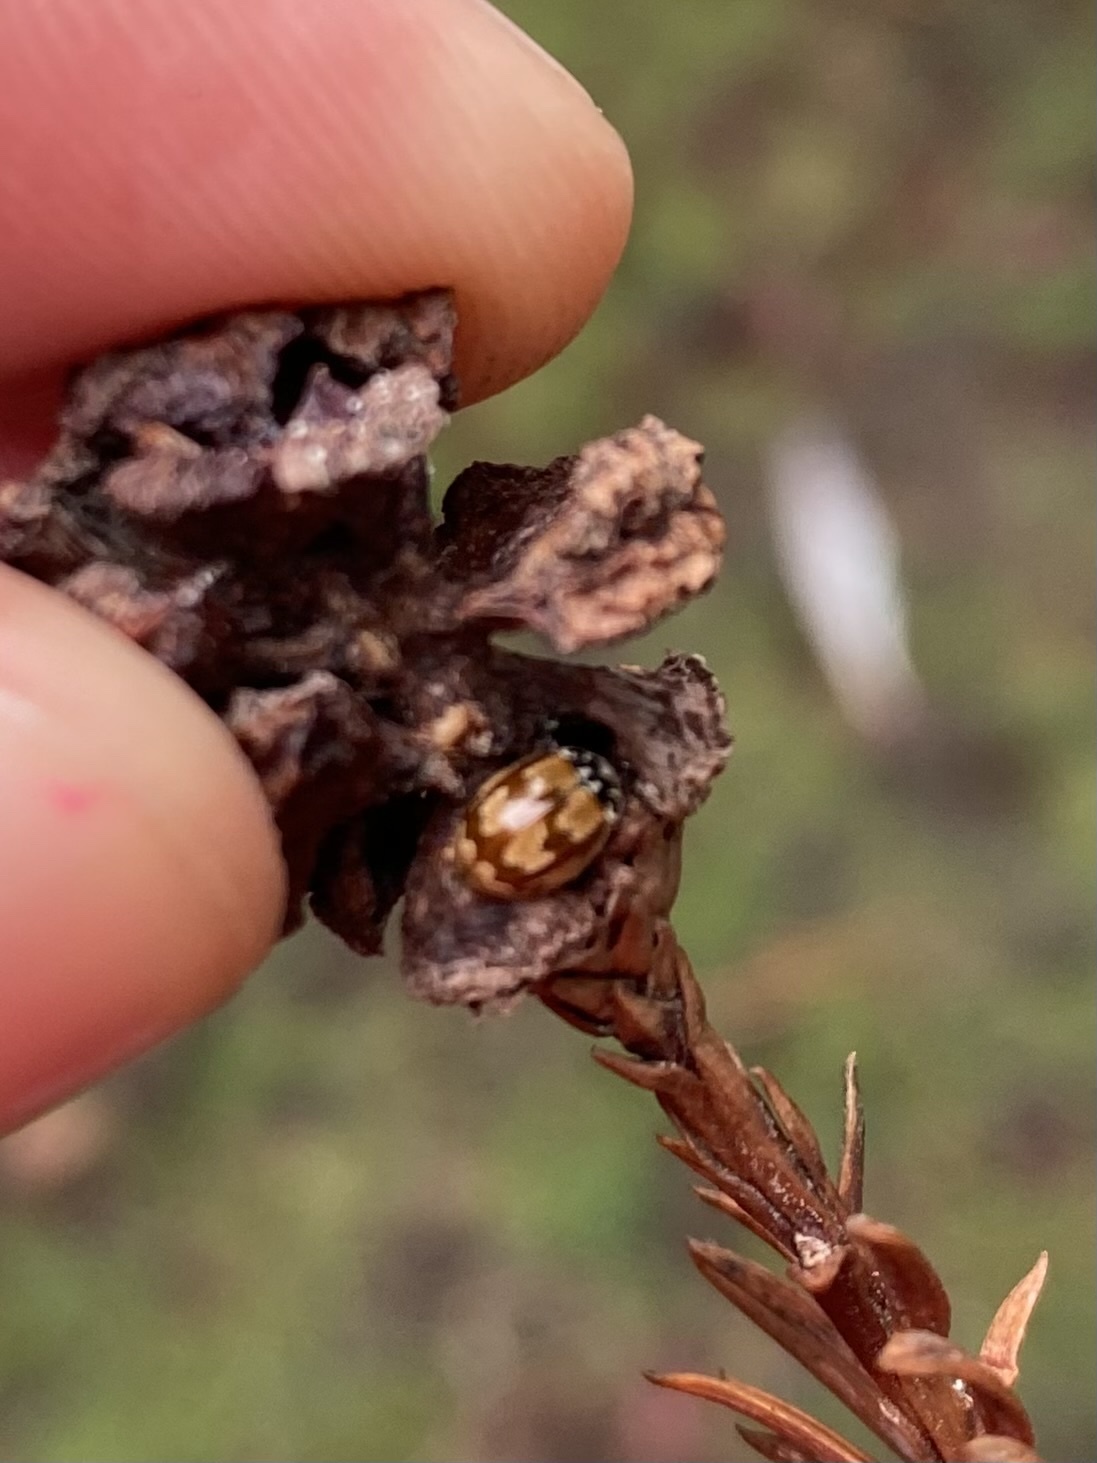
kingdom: Animalia
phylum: Arthropoda
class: Insecta
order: Coleoptera
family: Coccinellidae
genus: Mulsantina
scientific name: Mulsantina picta
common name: Painted ladybird
